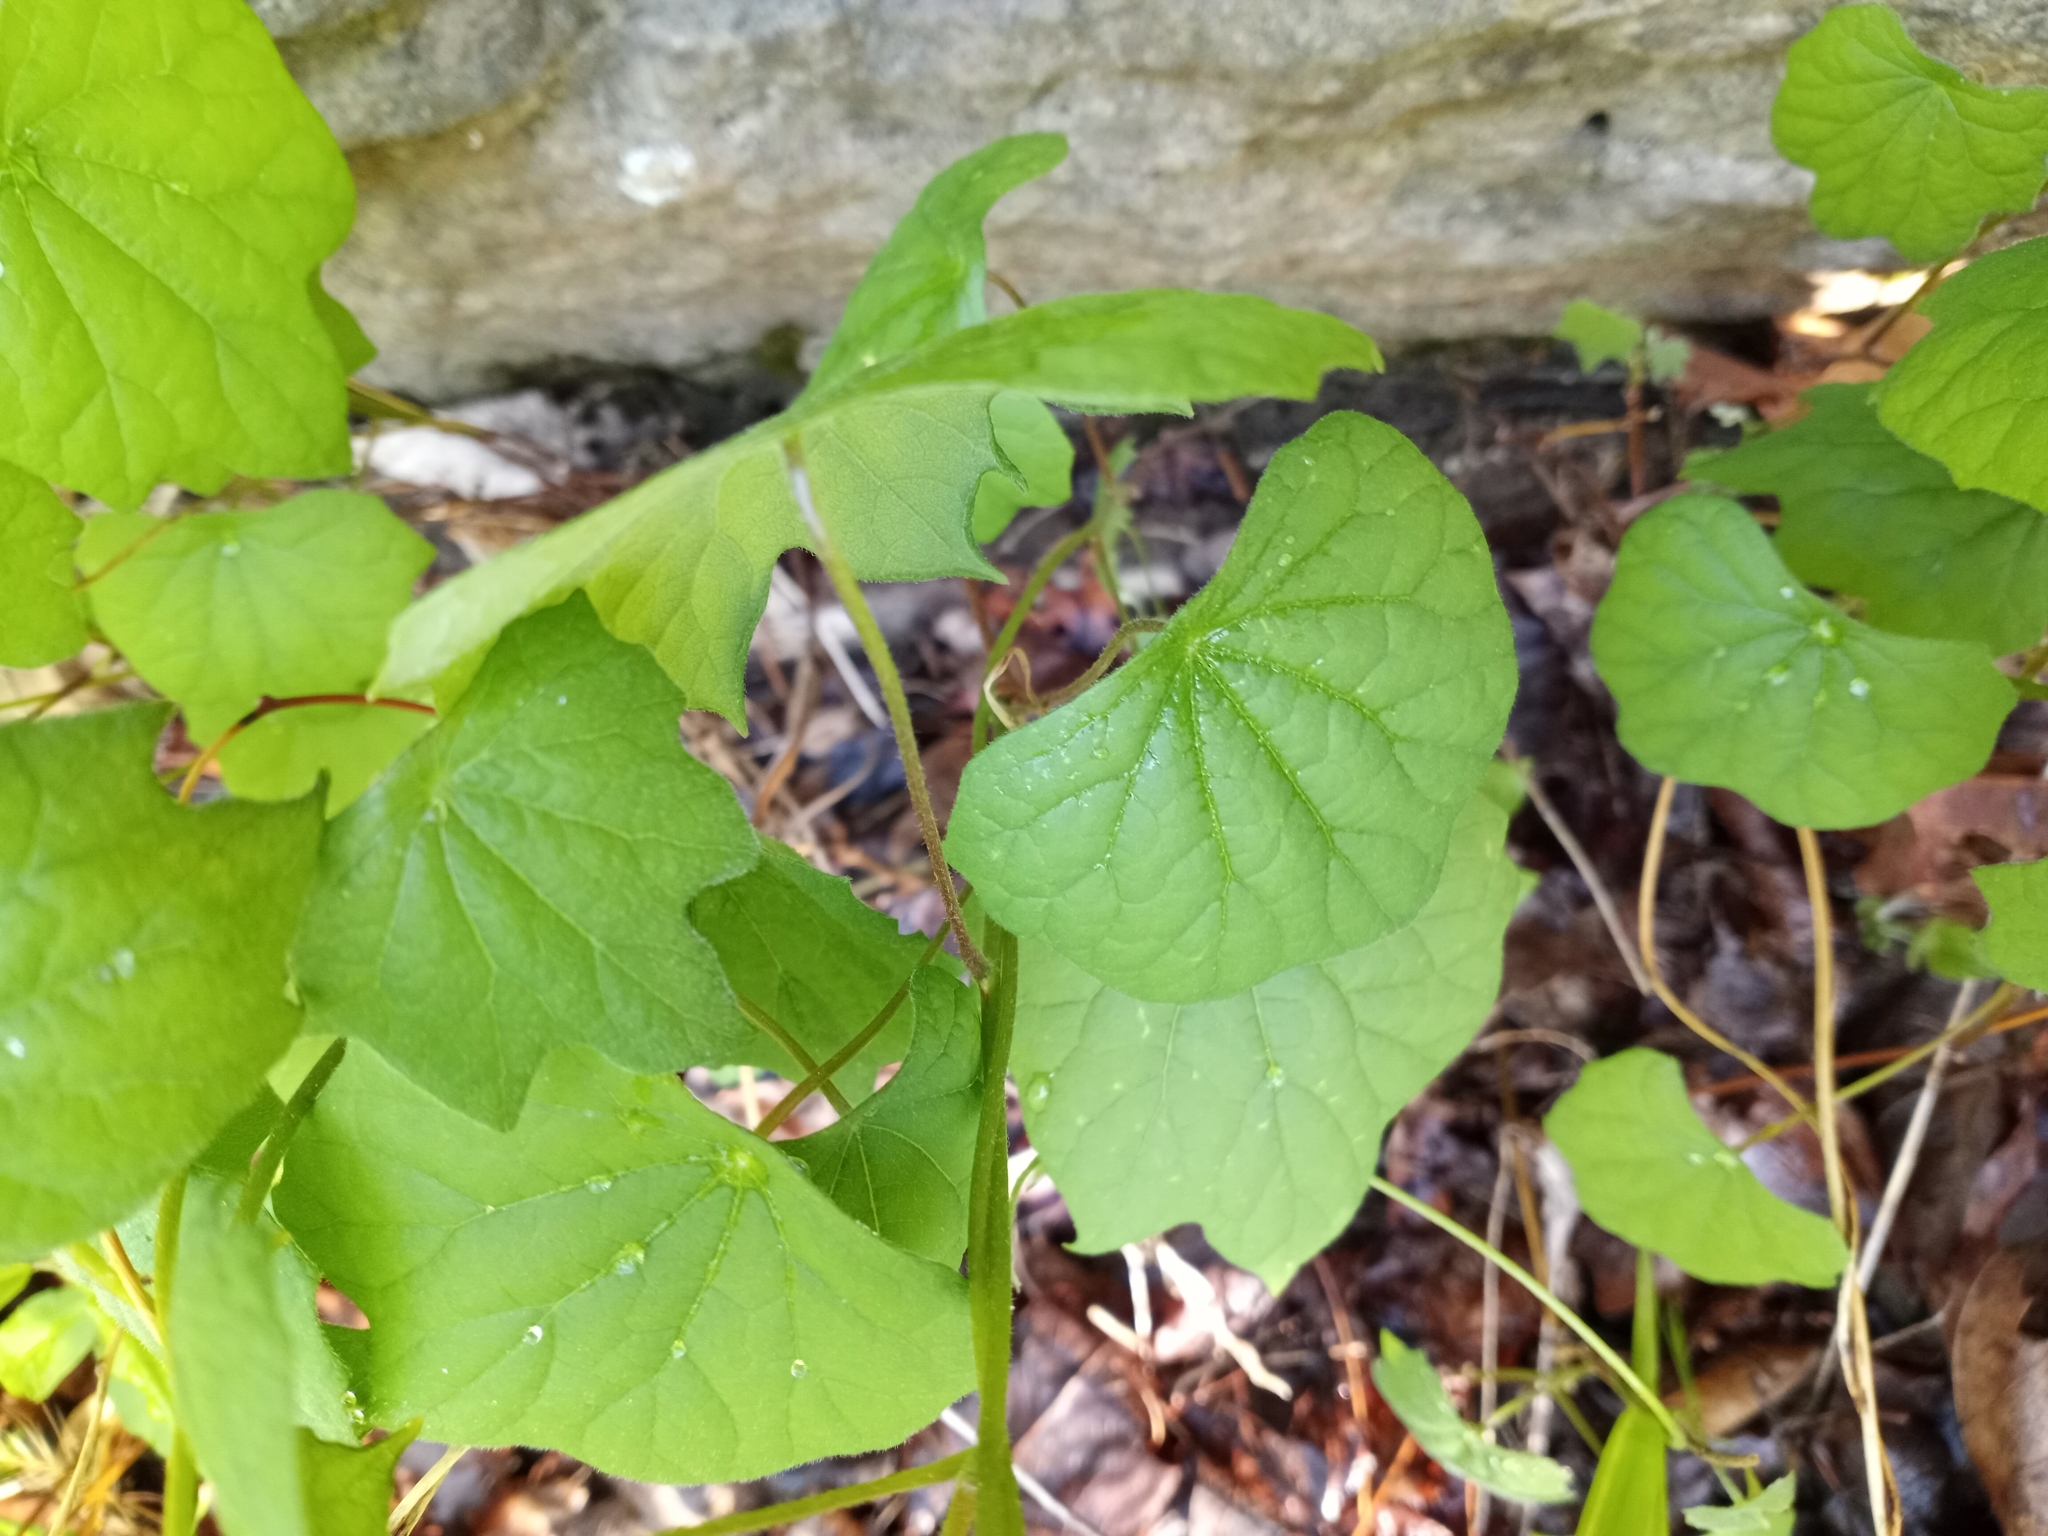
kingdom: Plantae
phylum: Tracheophyta
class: Magnoliopsida
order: Ranunculales
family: Menispermaceae
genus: Menispermum
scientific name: Menispermum canadense
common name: Moonseed
